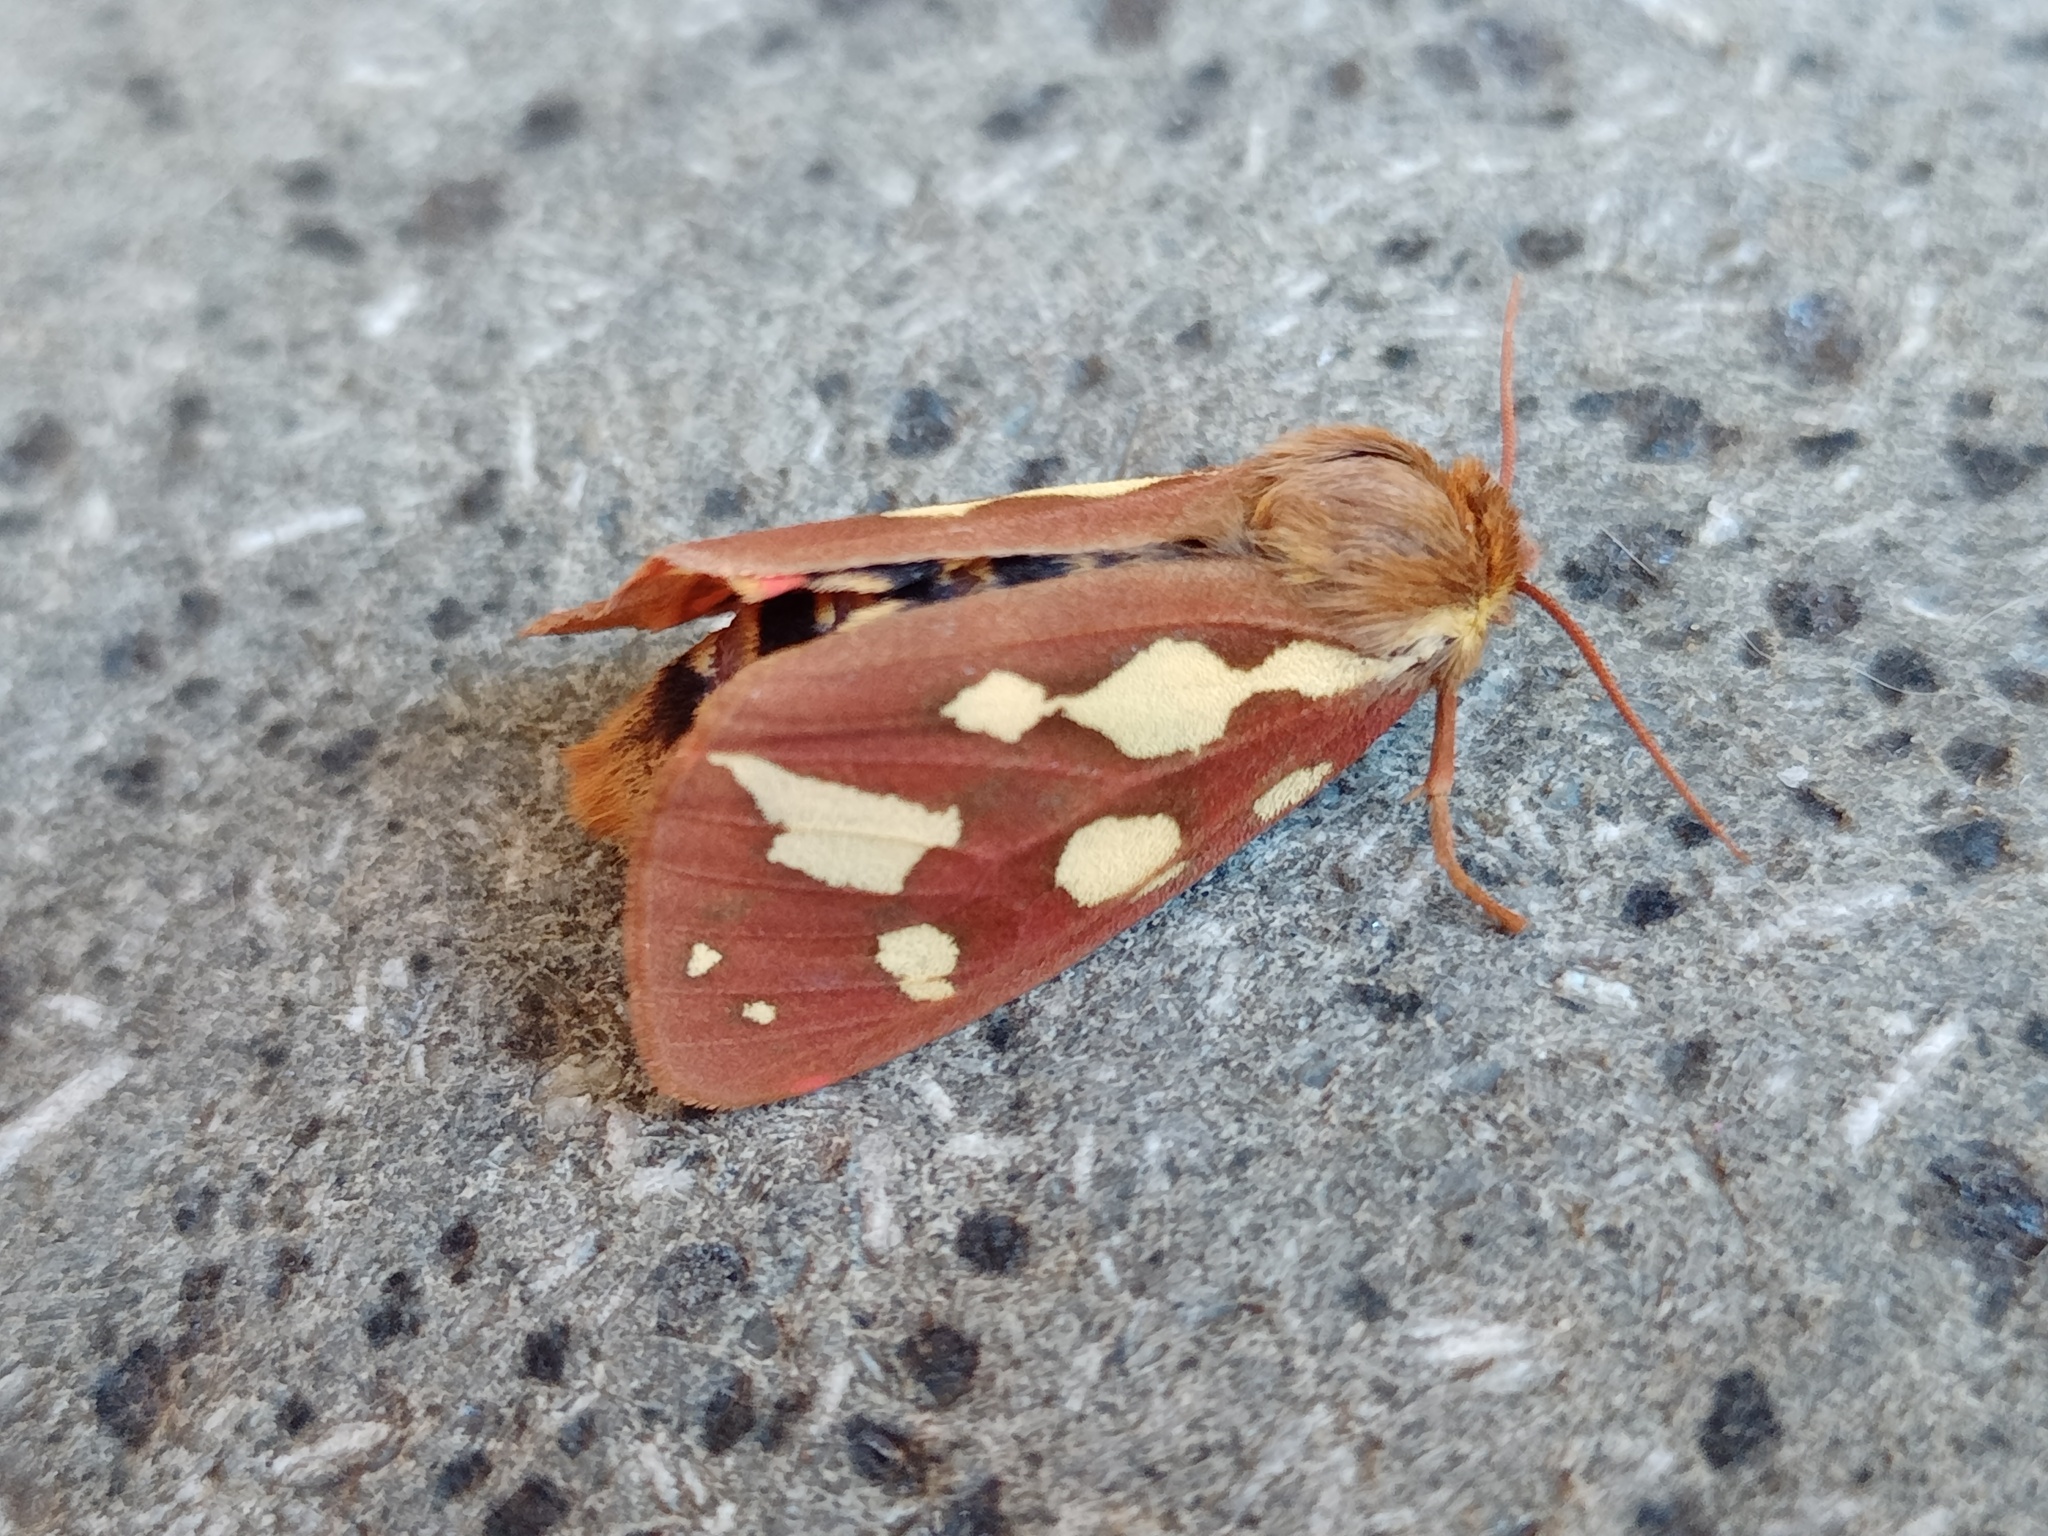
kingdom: Animalia
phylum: Arthropoda
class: Insecta
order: Lepidoptera
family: Erebidae
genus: Arctia
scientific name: Arctia testudinaria
